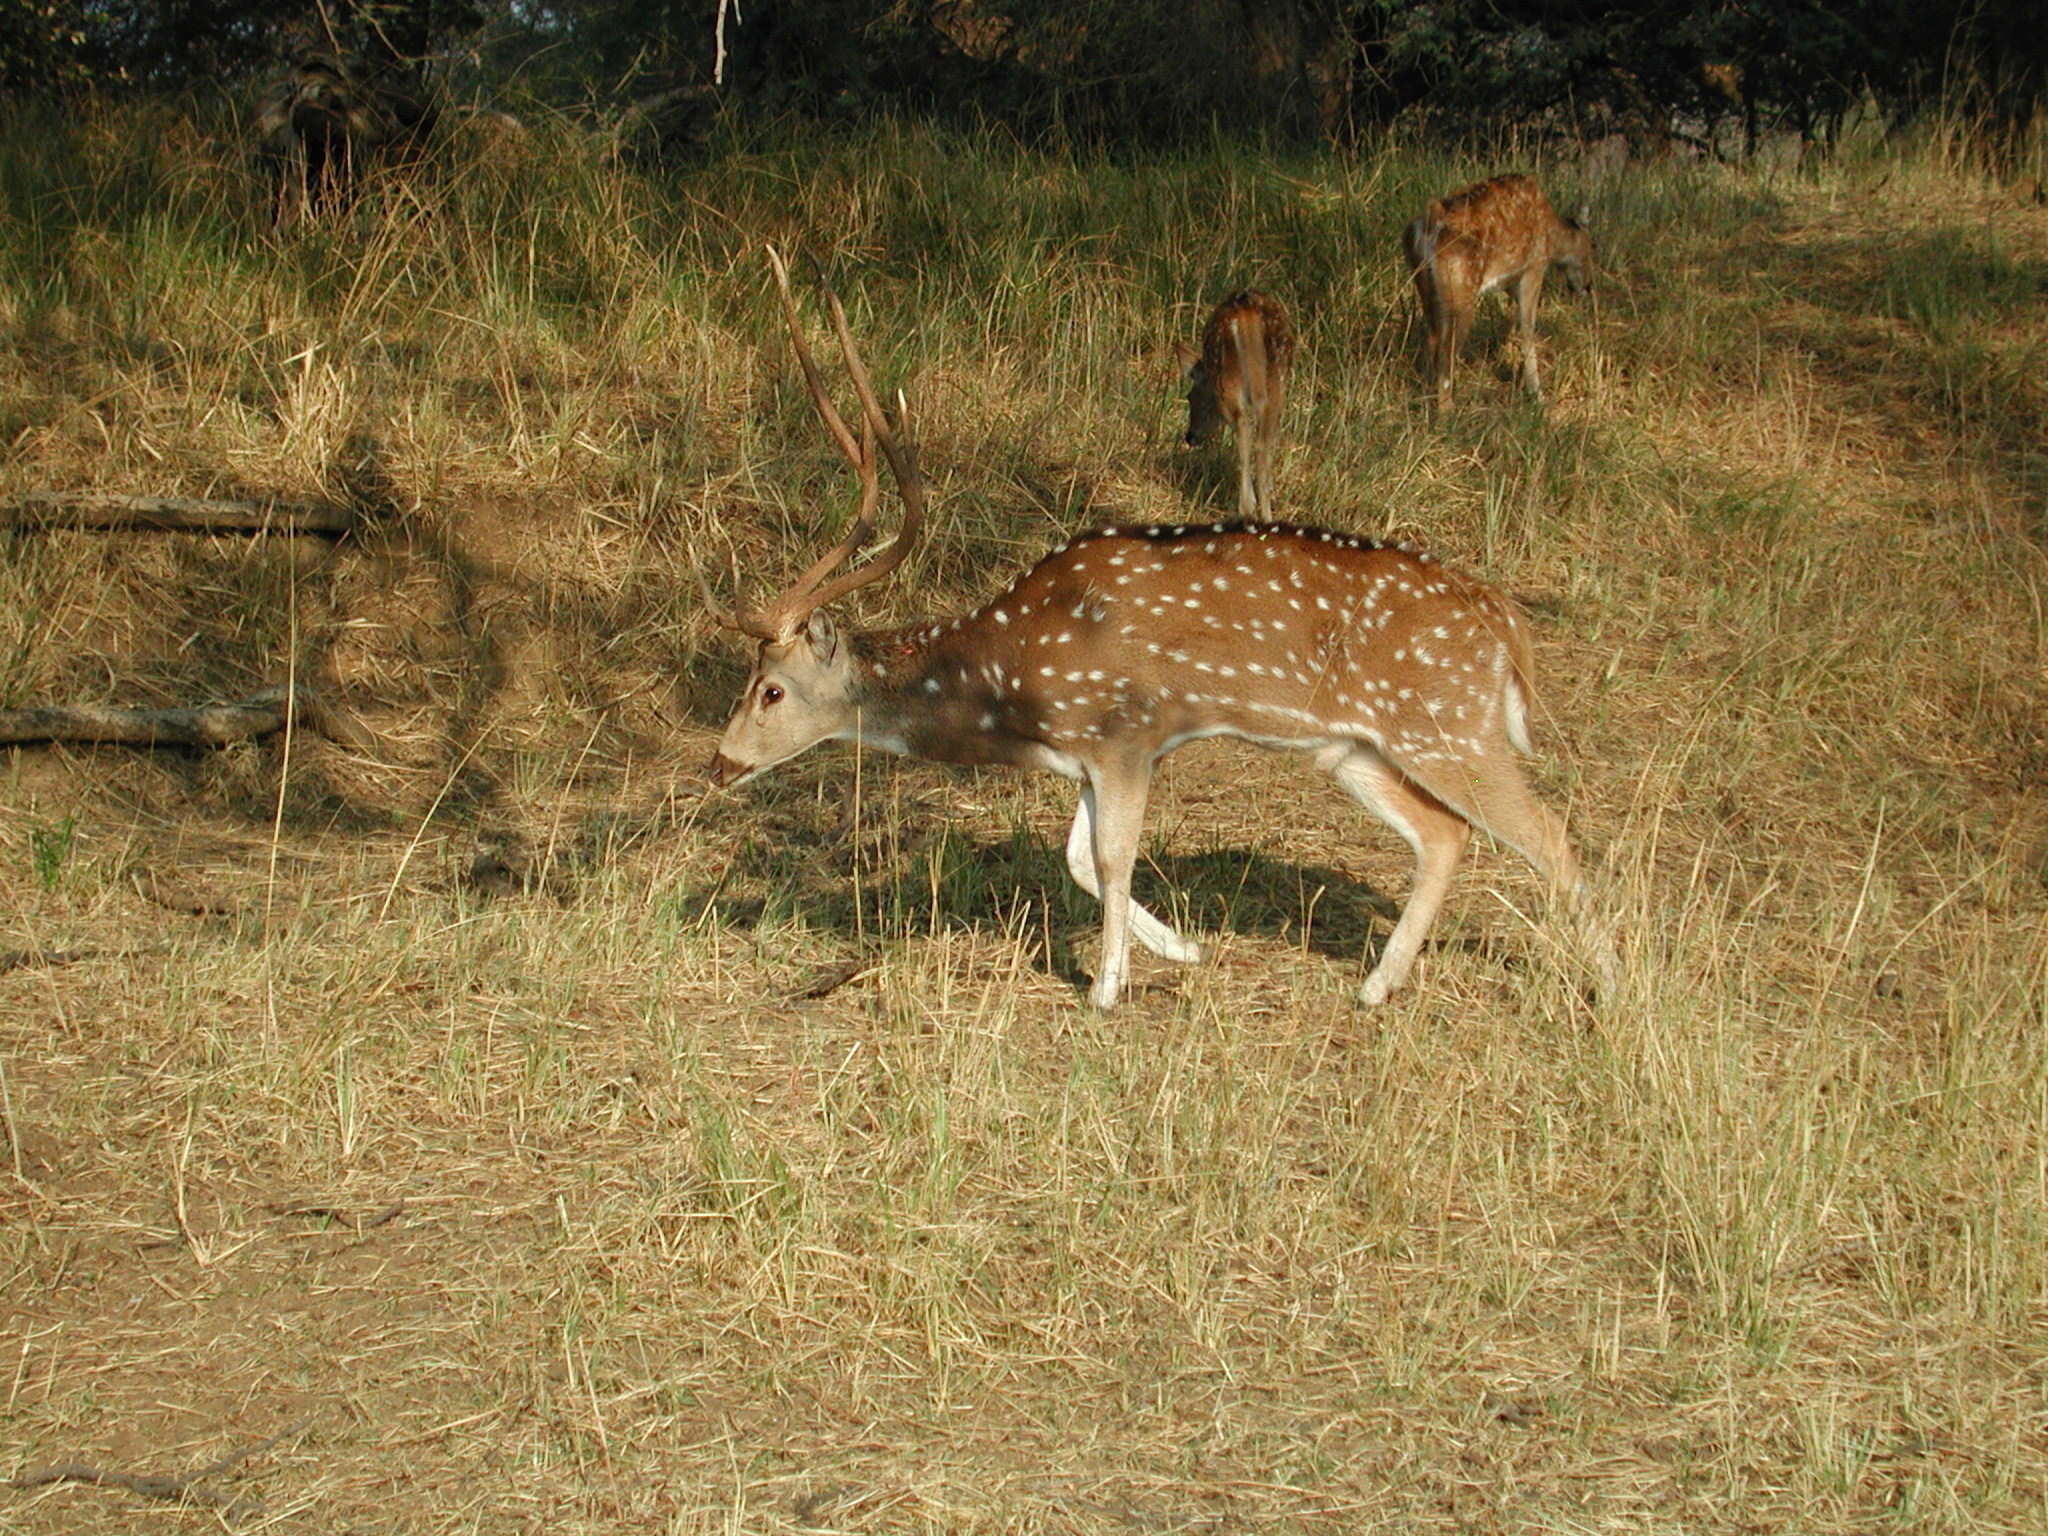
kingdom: Animalia
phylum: Chordata
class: Mammalia
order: Artiodactyla
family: Cervidae
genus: Axis
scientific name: Axis axis
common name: Chital
